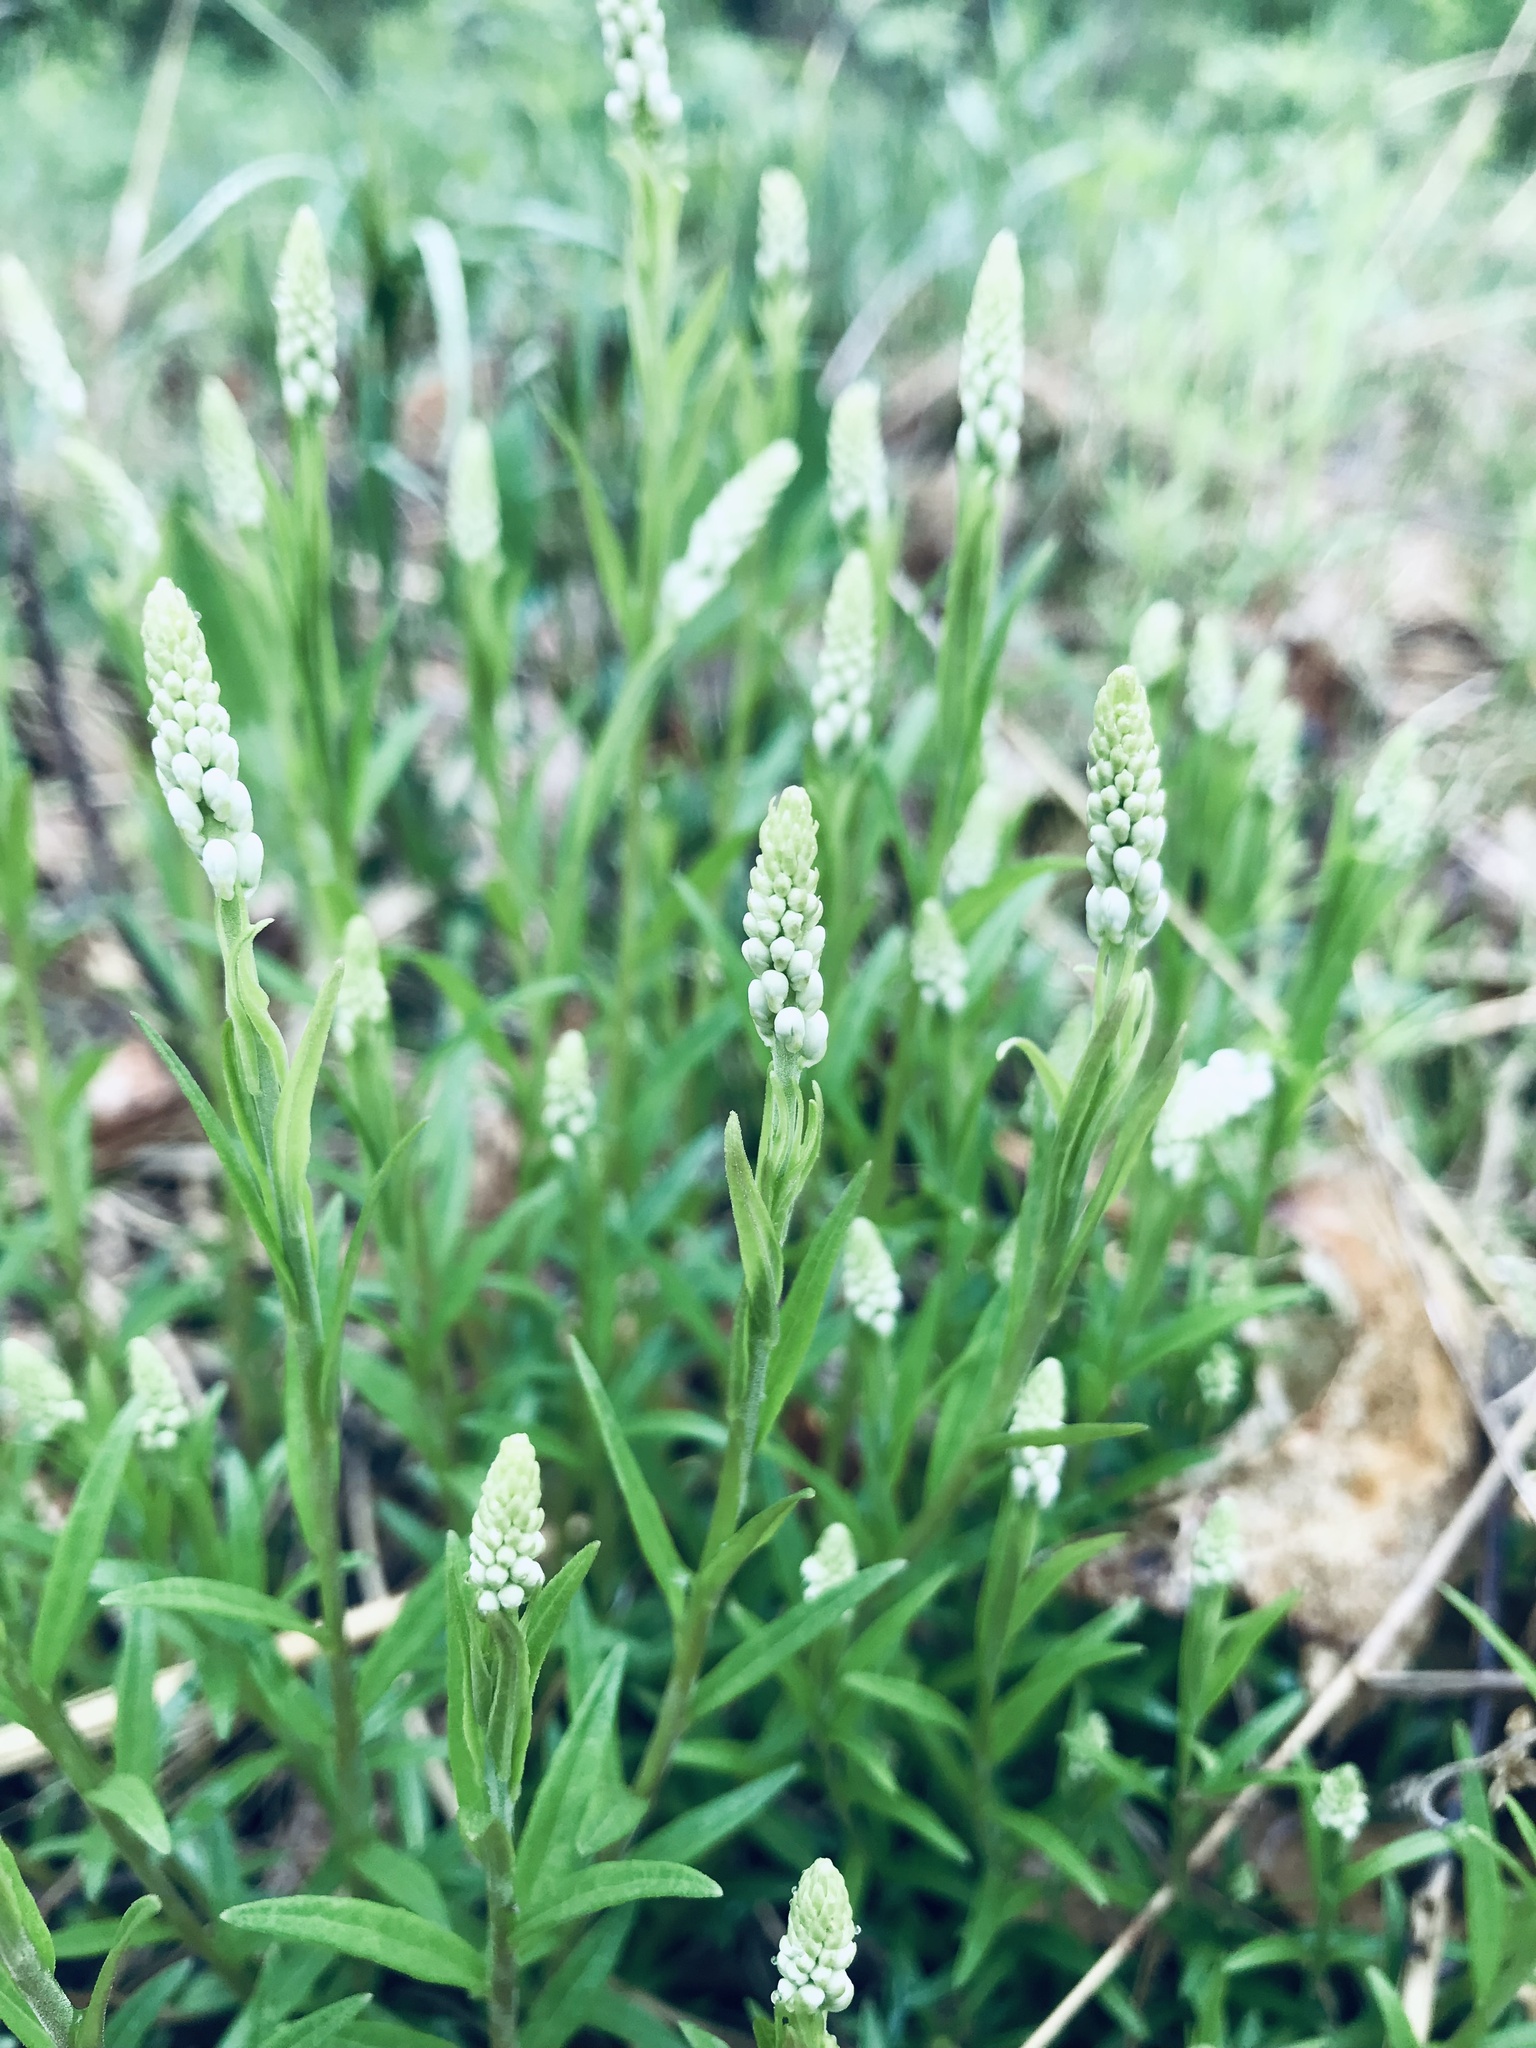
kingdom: Plantae
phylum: Tracheophyta
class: Magnoliopsida
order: Fabales
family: Polygalaceae
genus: Polygala
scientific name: Polygala senega
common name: Seneca snakeroot
